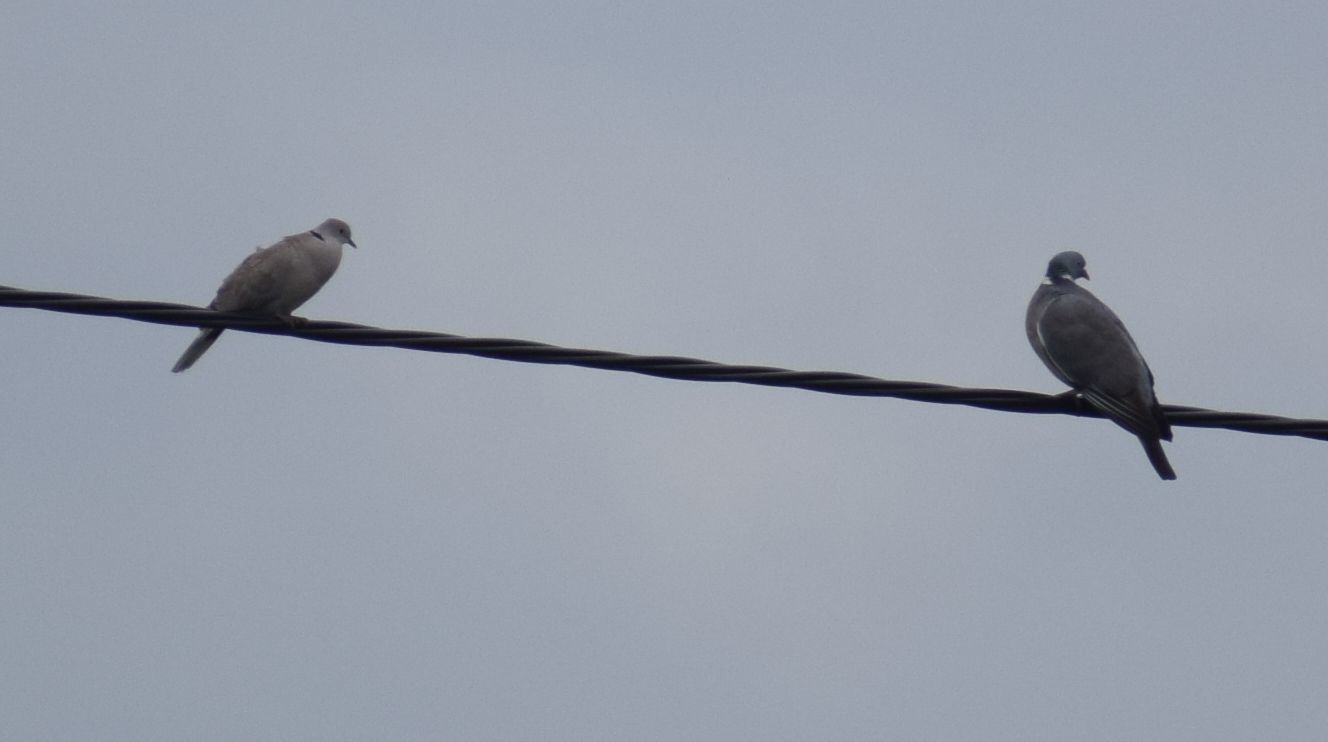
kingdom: Animalia
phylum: Chordata
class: Aves
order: Columbiformes
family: Columbidae
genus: Streptopelia
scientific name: Streptopelia decaocto
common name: Eurasian collared dove
